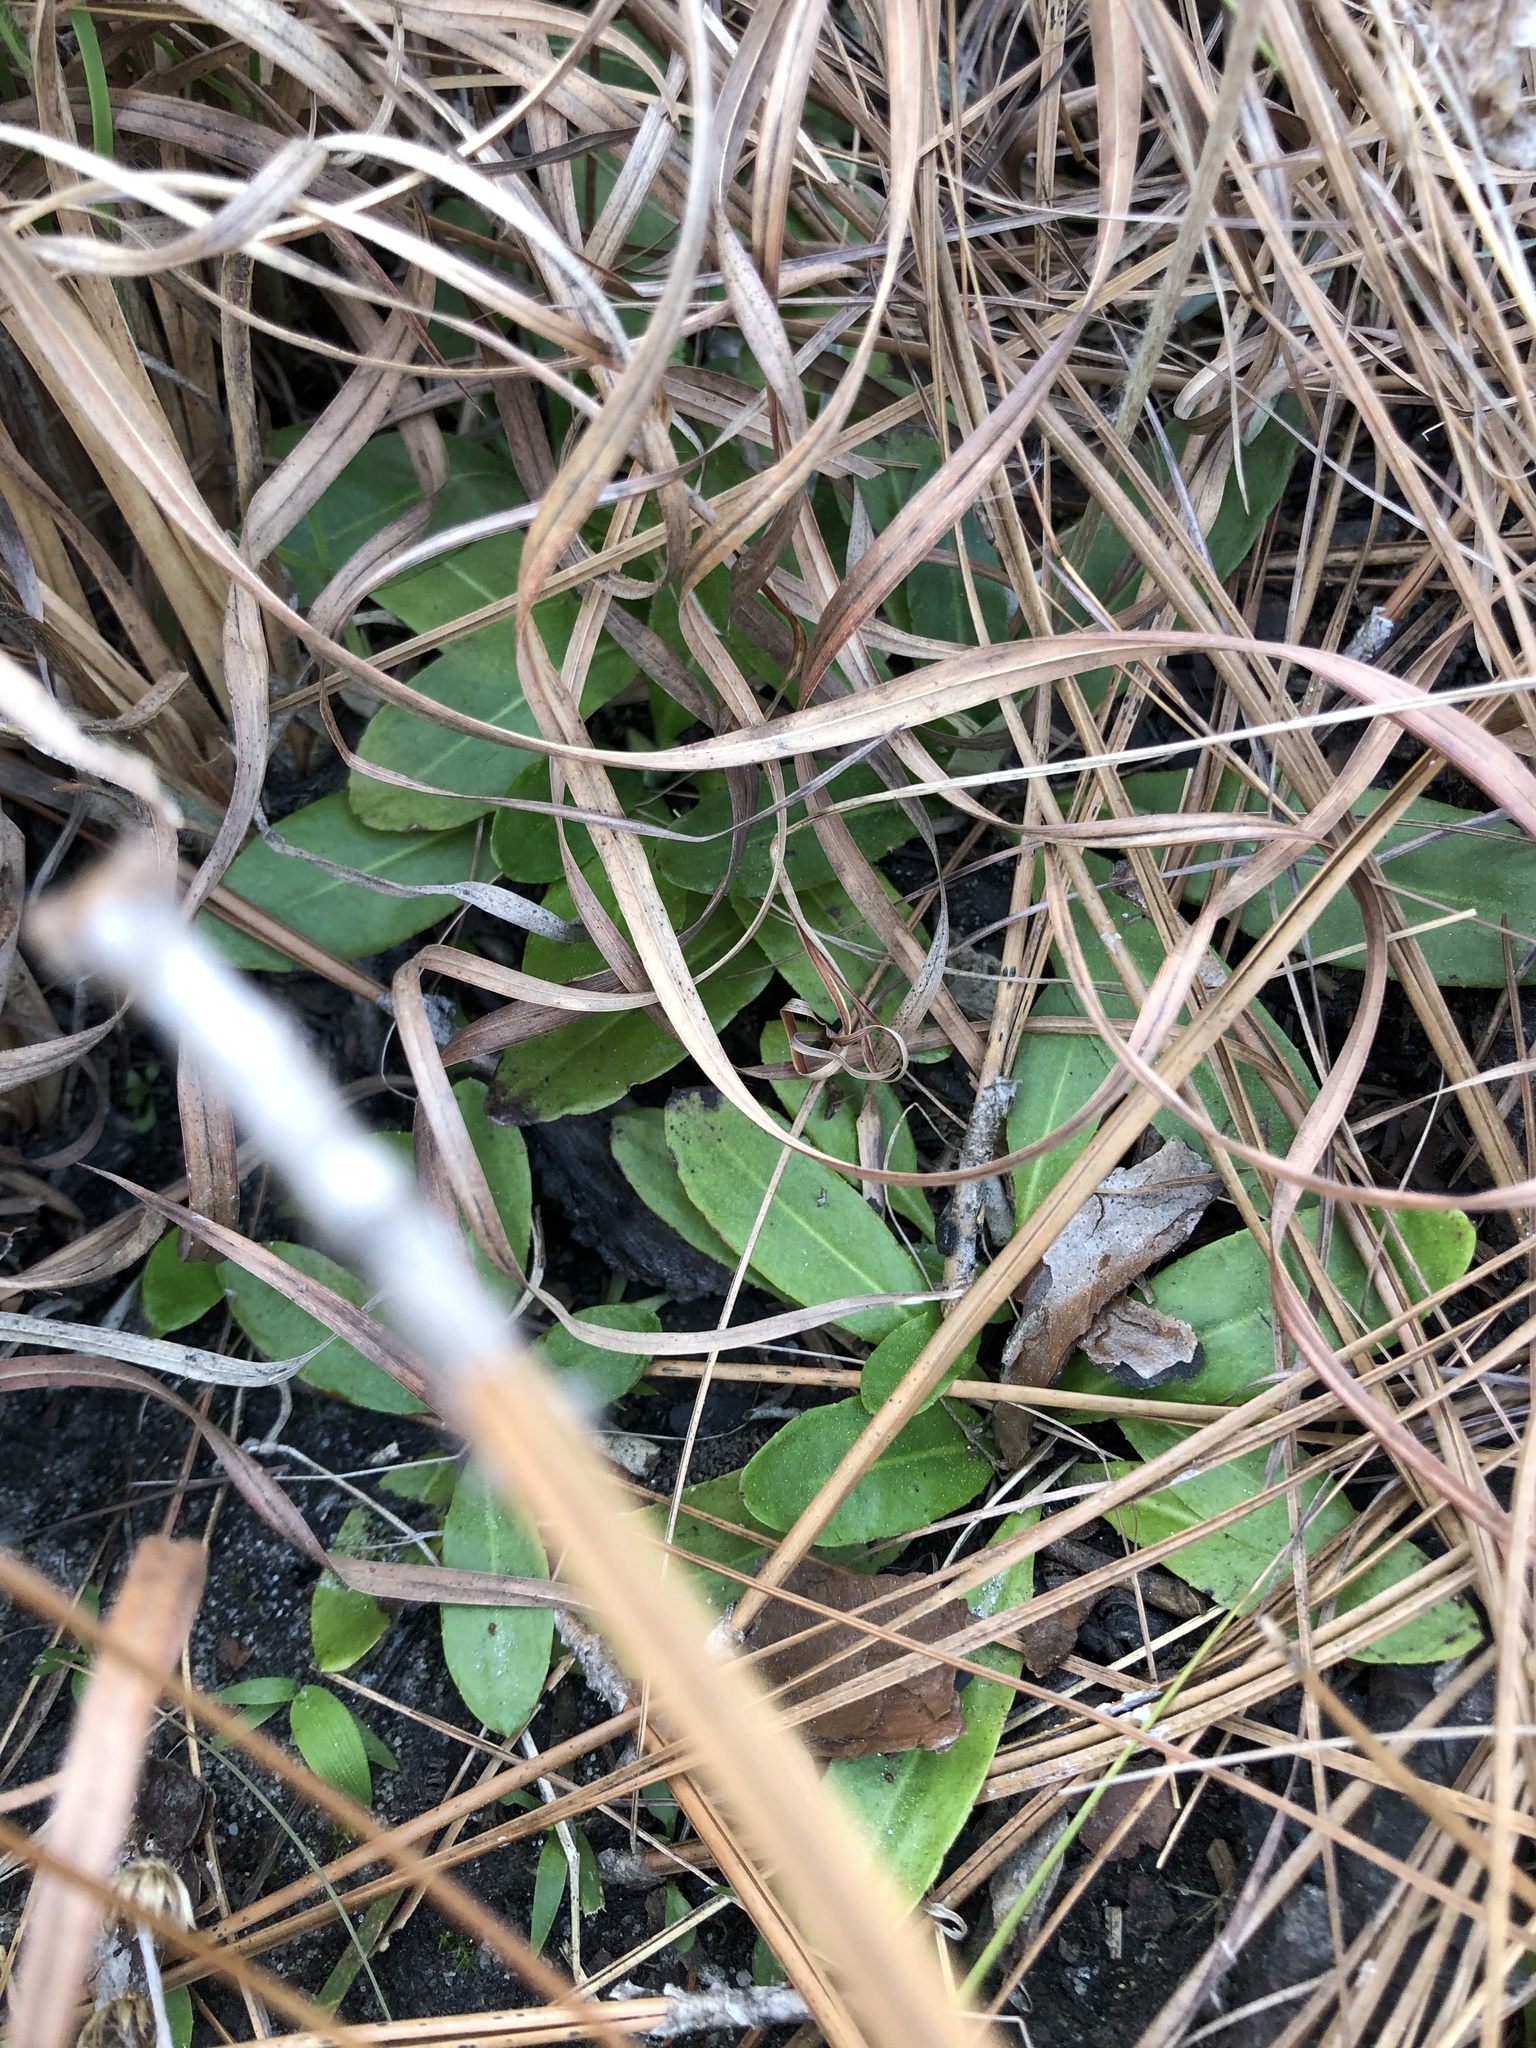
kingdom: Plantae
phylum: Tracheophyta
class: Magnoliopsida
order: Asterales
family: Asteraceae
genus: Chaptalia
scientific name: Chaptalia tomentosa
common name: Woolly sunbonnet
